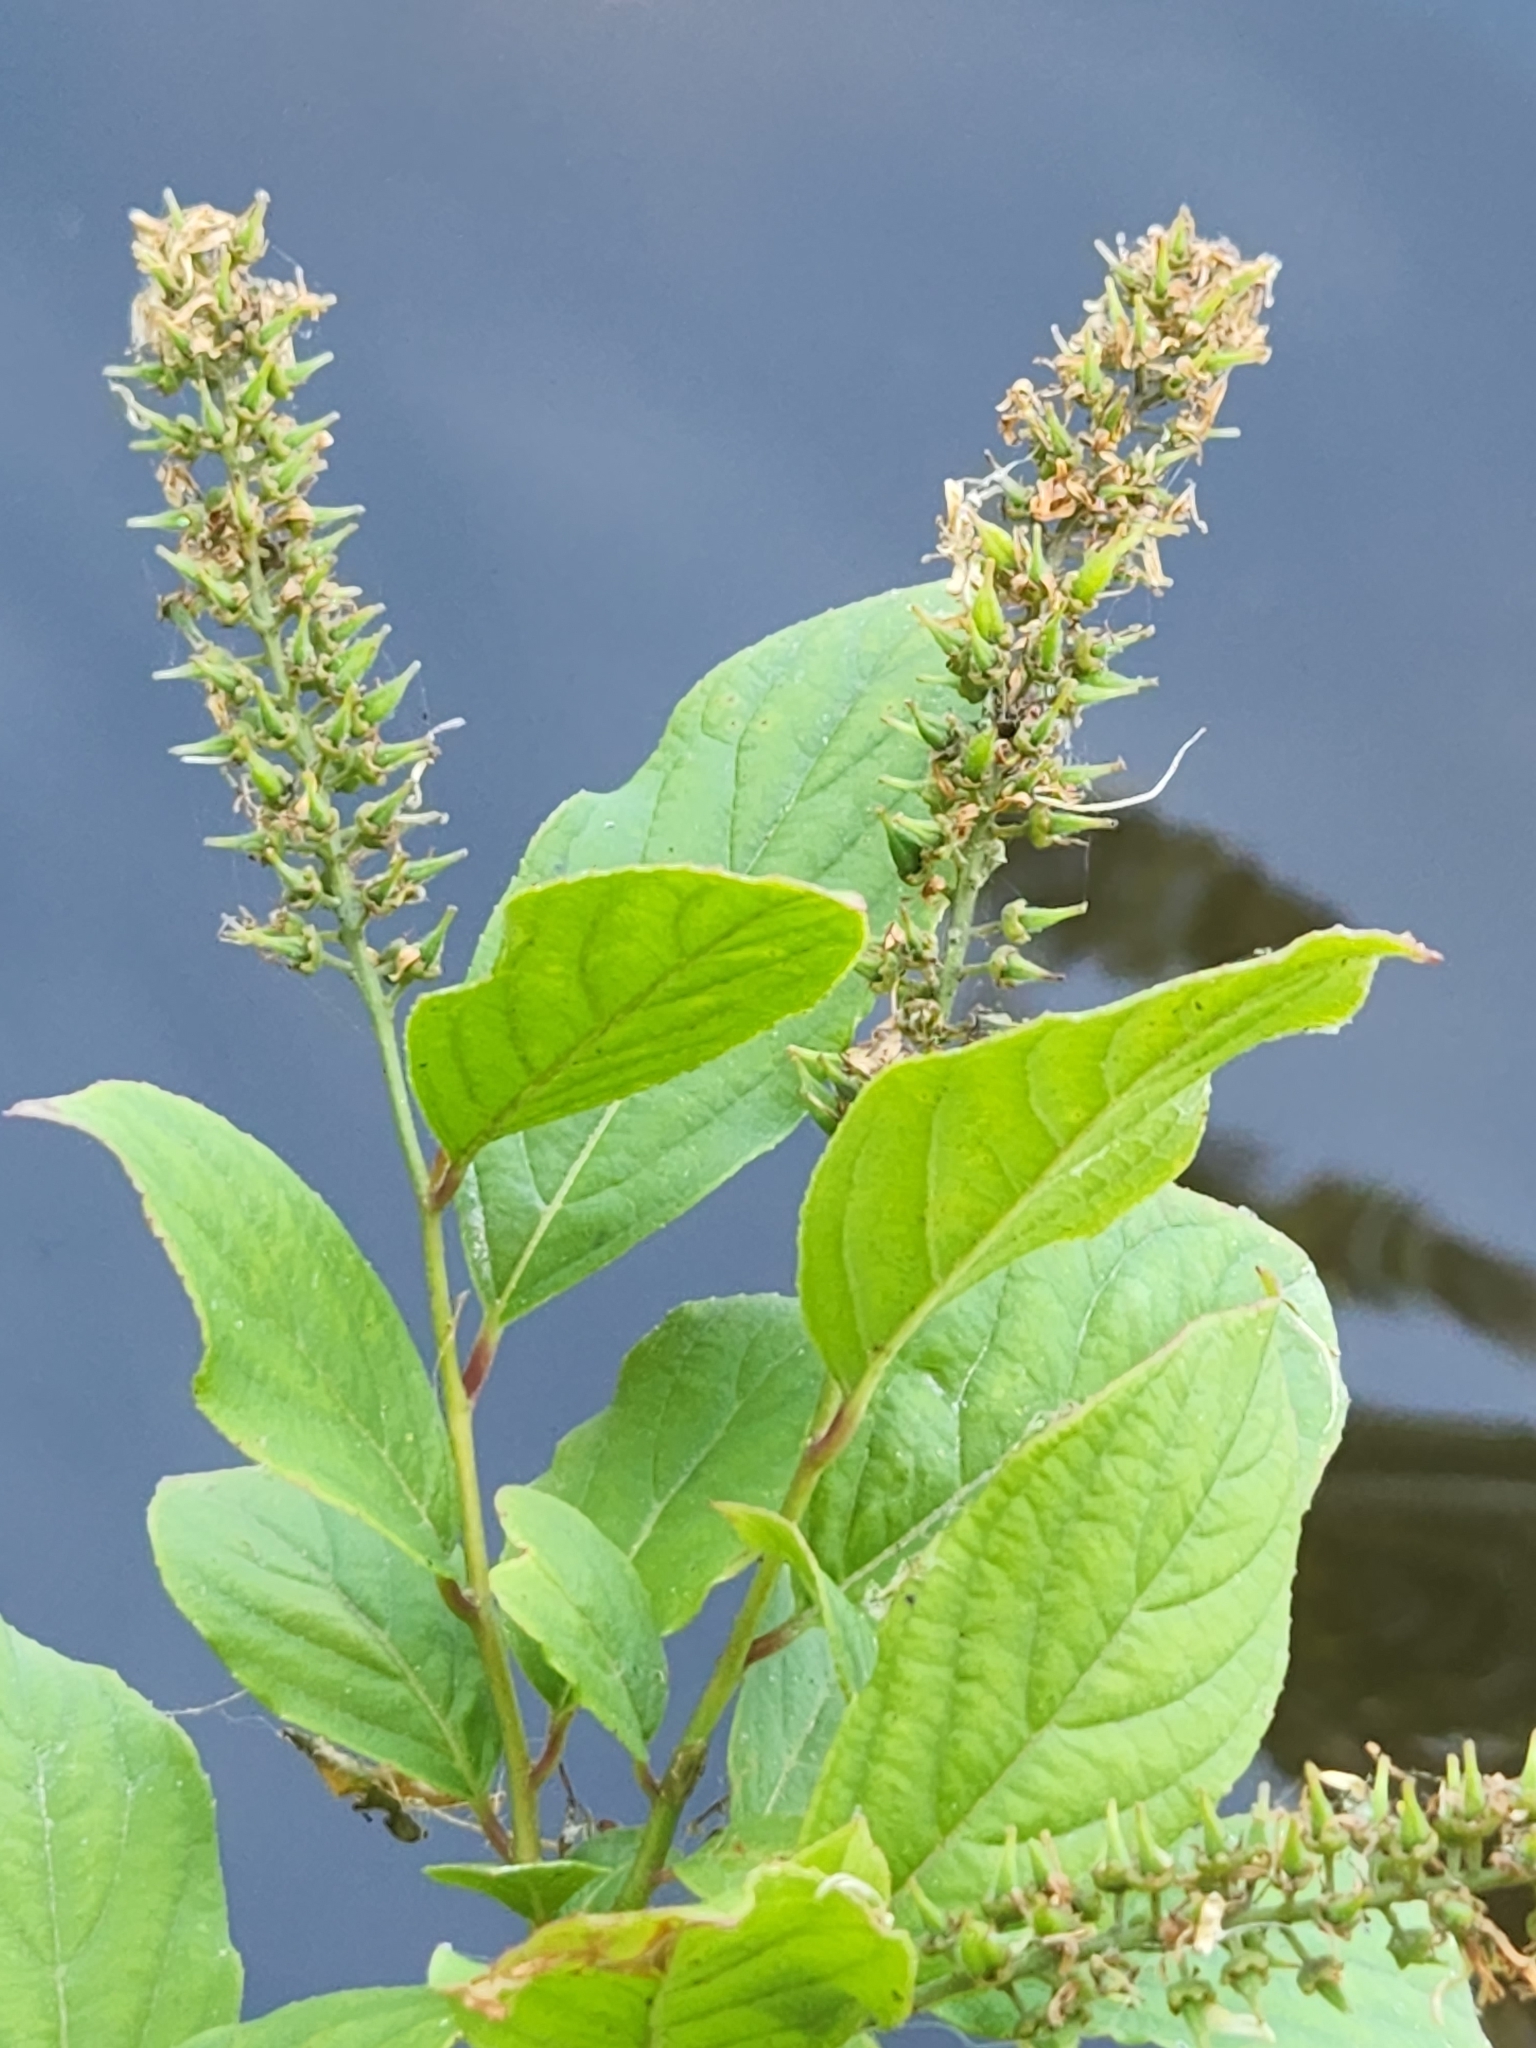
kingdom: Plantae
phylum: Tracheophyta
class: Magnoliopsida
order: Saxifragales
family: Iteaceae
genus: Itea
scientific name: Itea virginica
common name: Sweetspire
